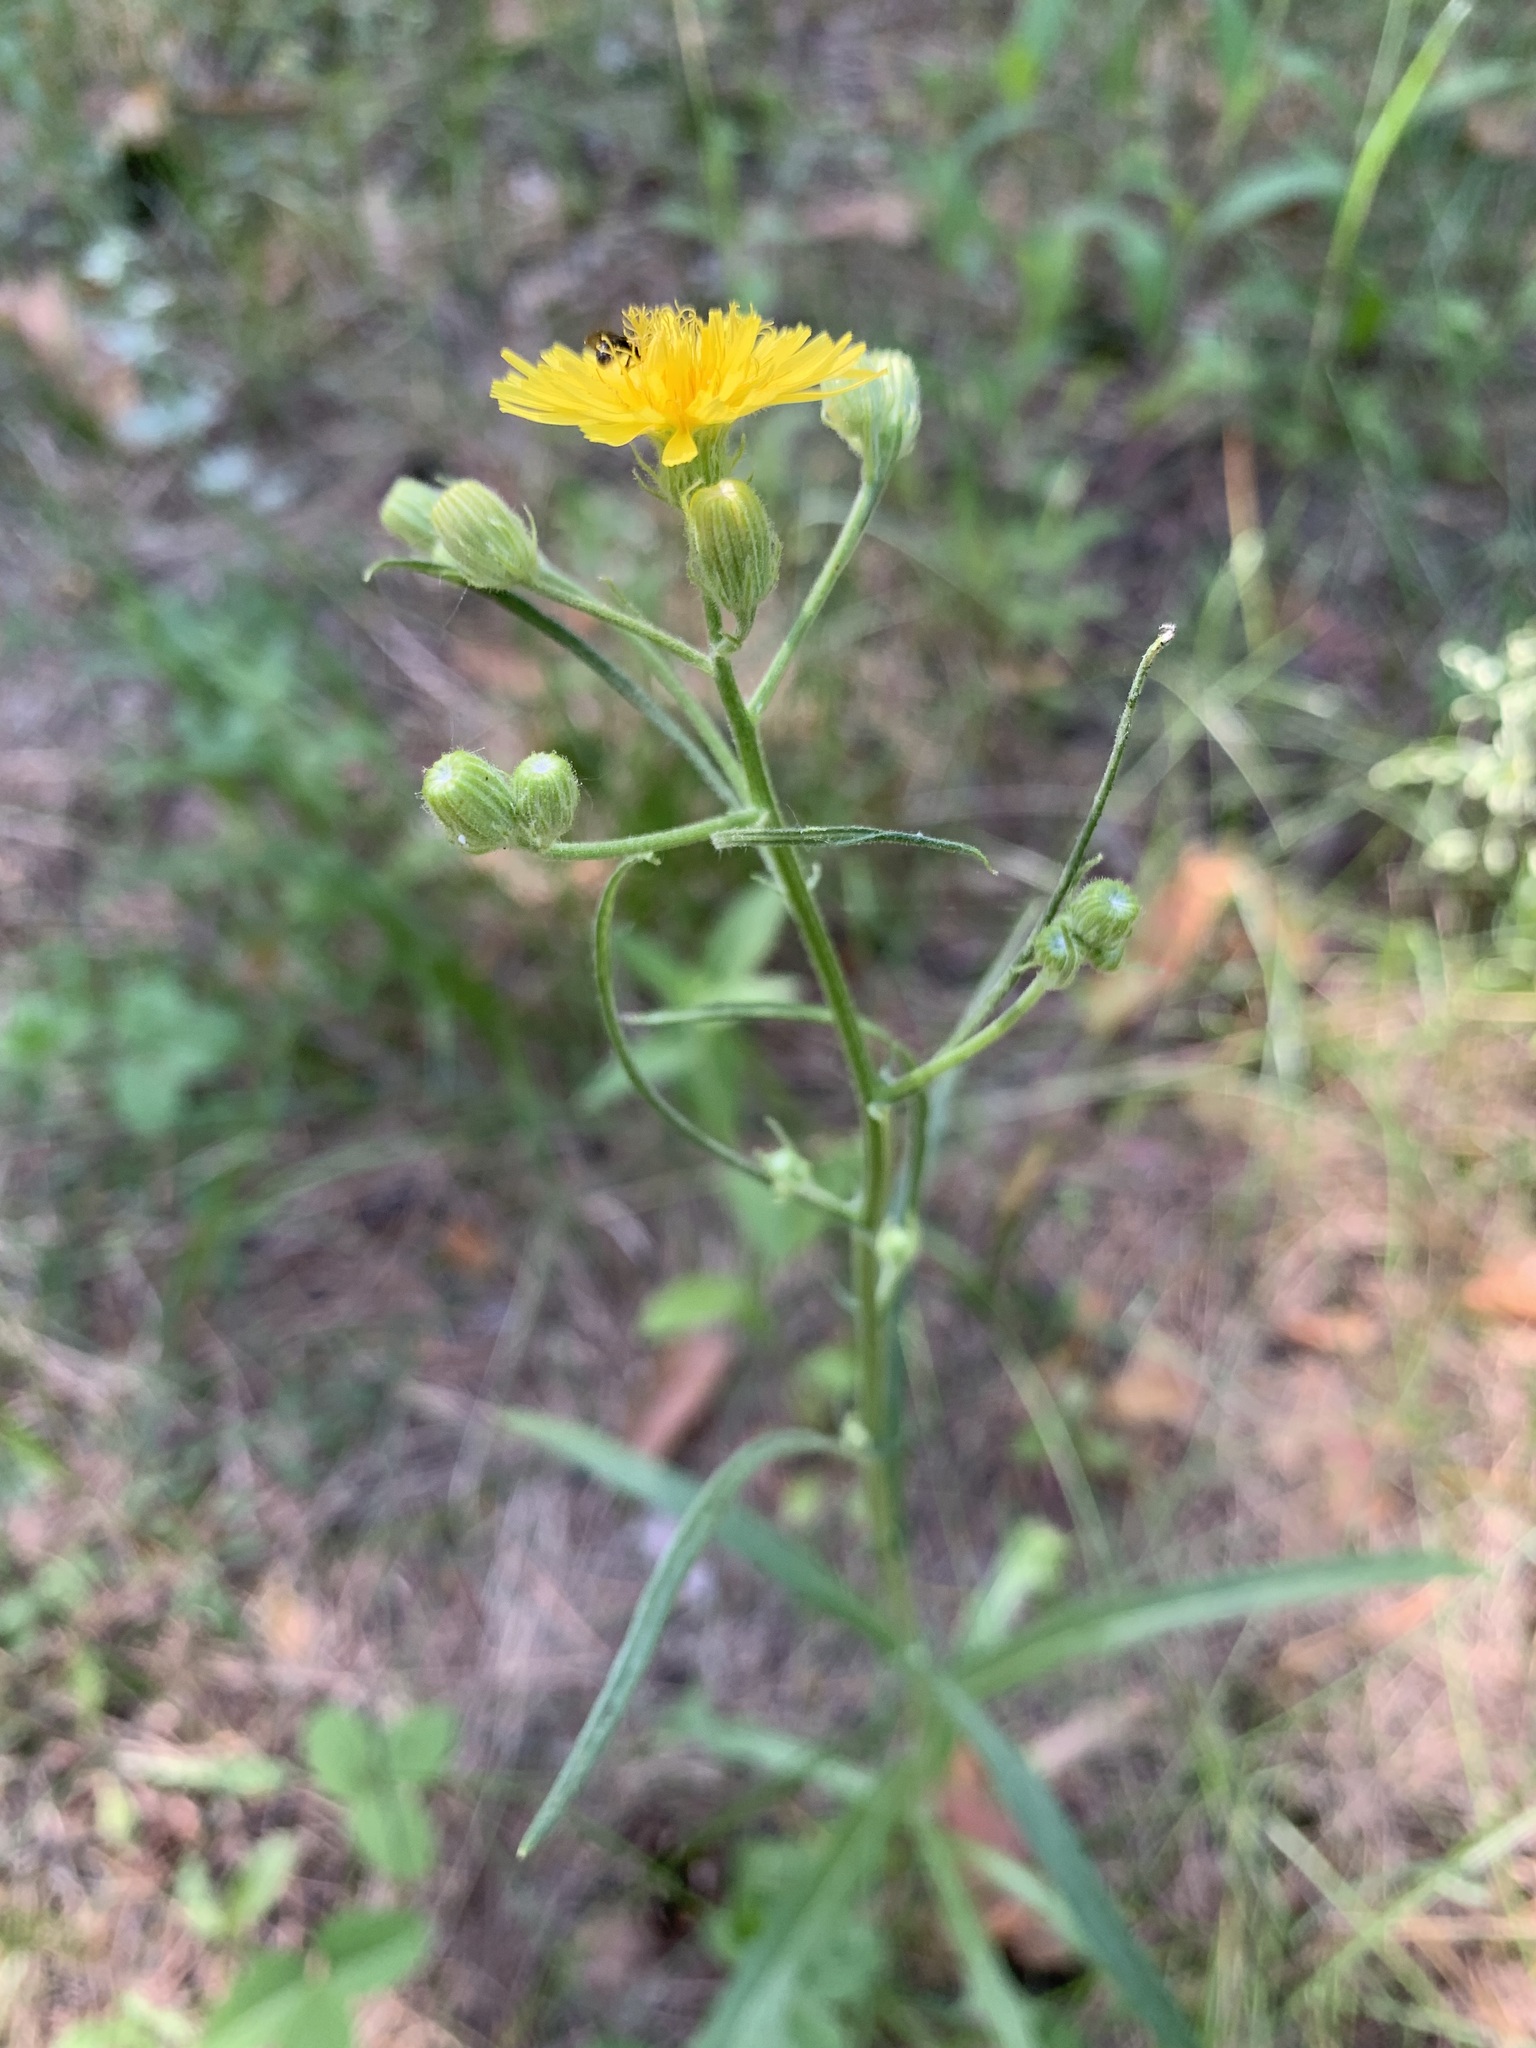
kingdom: Plantae
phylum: Tracheophyta
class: Magnoliopsida
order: Asterales
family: Asteraceae
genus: Crepis
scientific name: Crepis tectorum
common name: Narrow-leaved hawk's-beard
